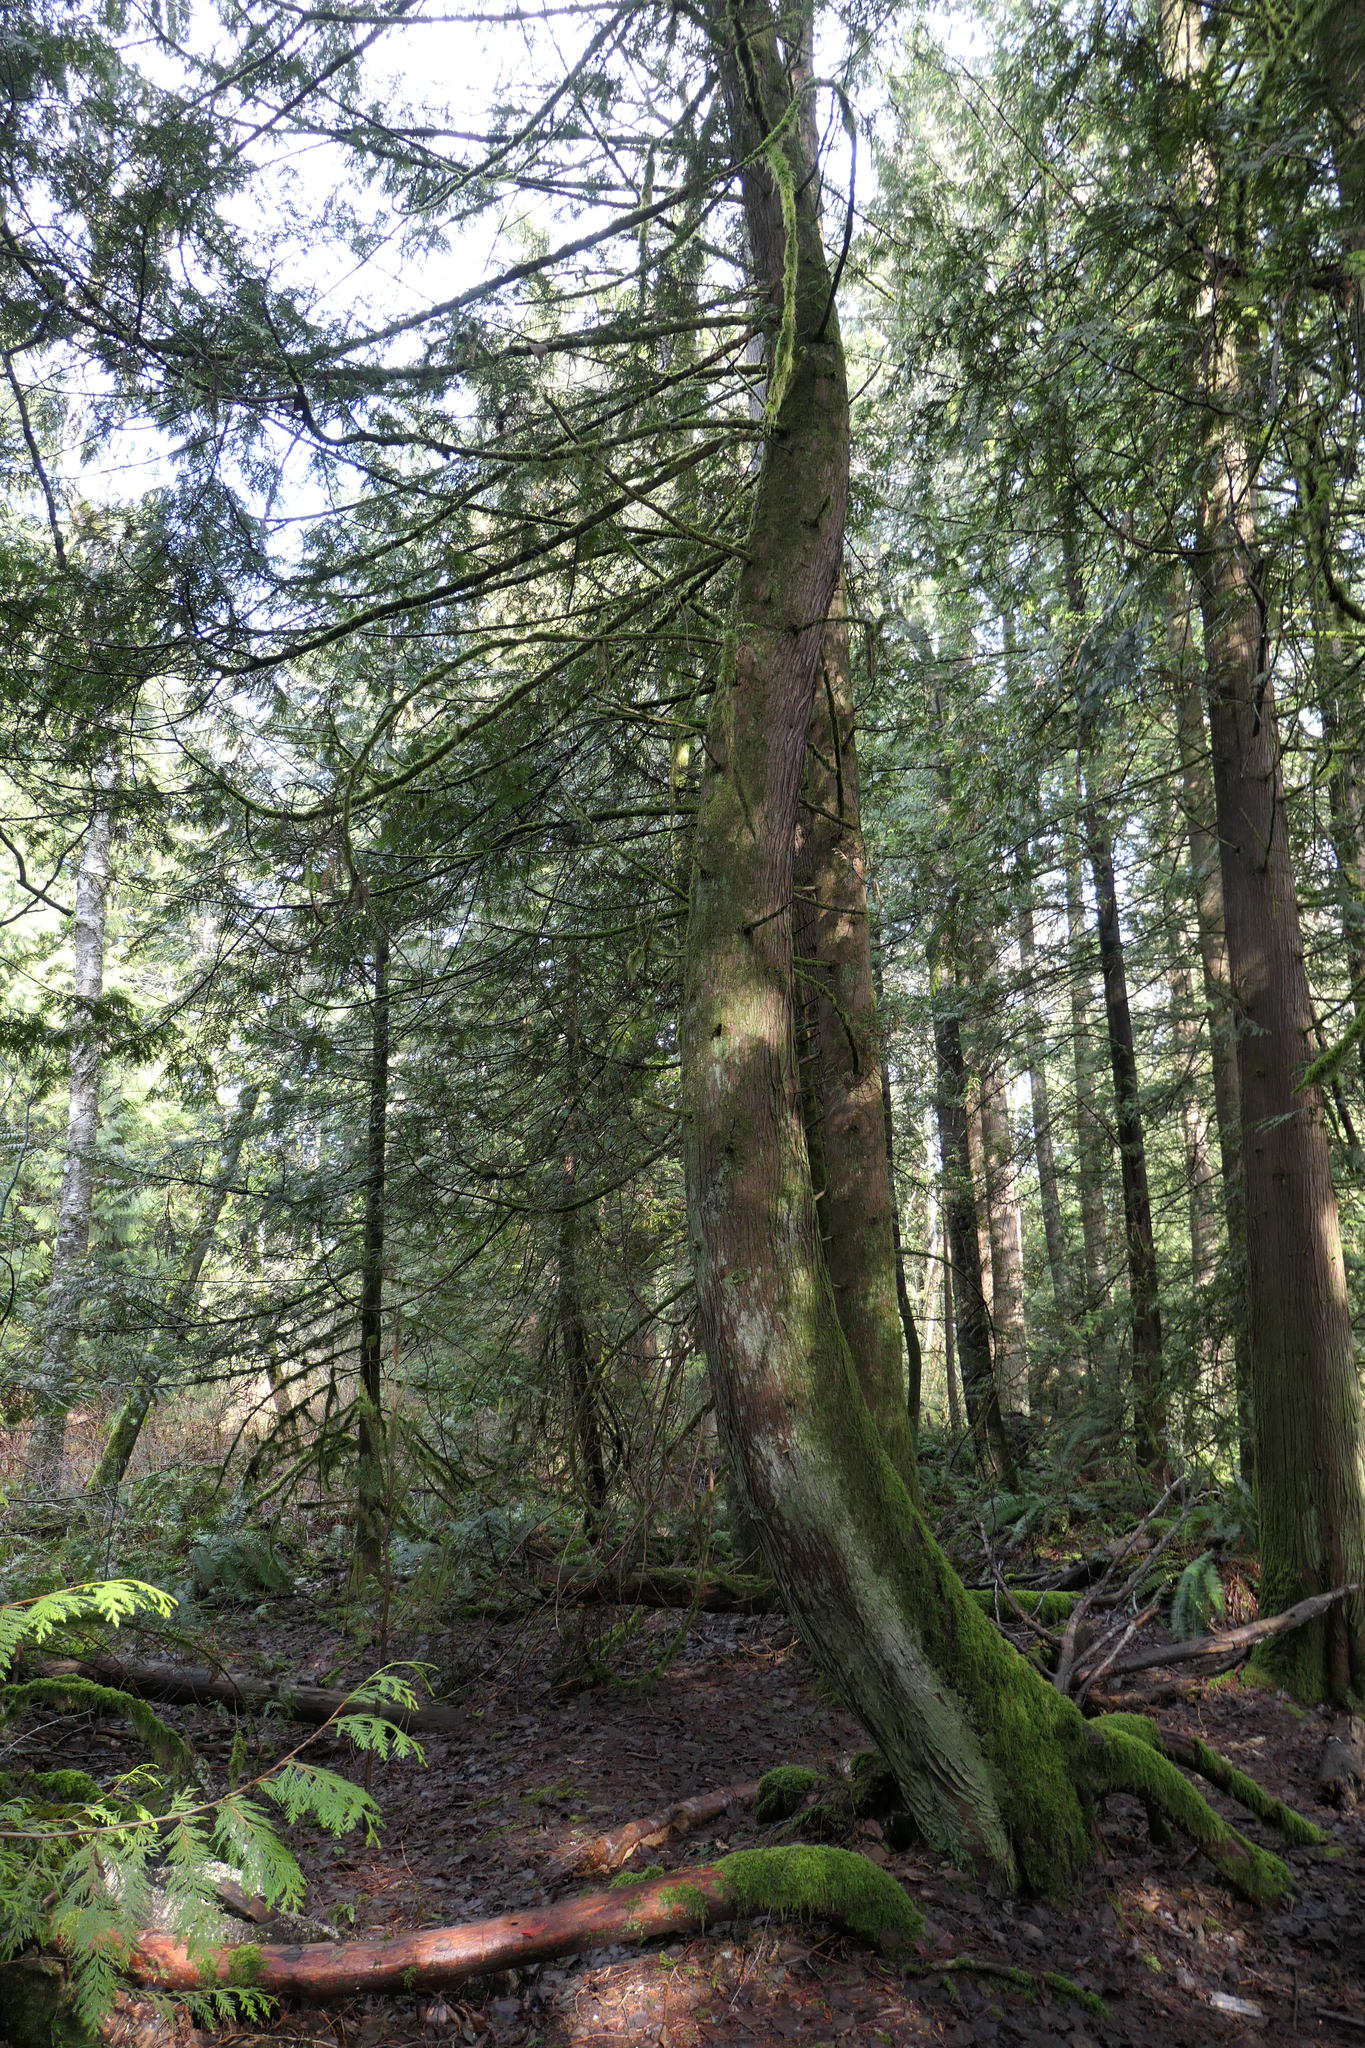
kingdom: Plantae
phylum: Tracheophyta
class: Pinopsida
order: Pinales
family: Cupressaceae
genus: Thuja
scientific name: Thuja plicata
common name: Western red-cedar
